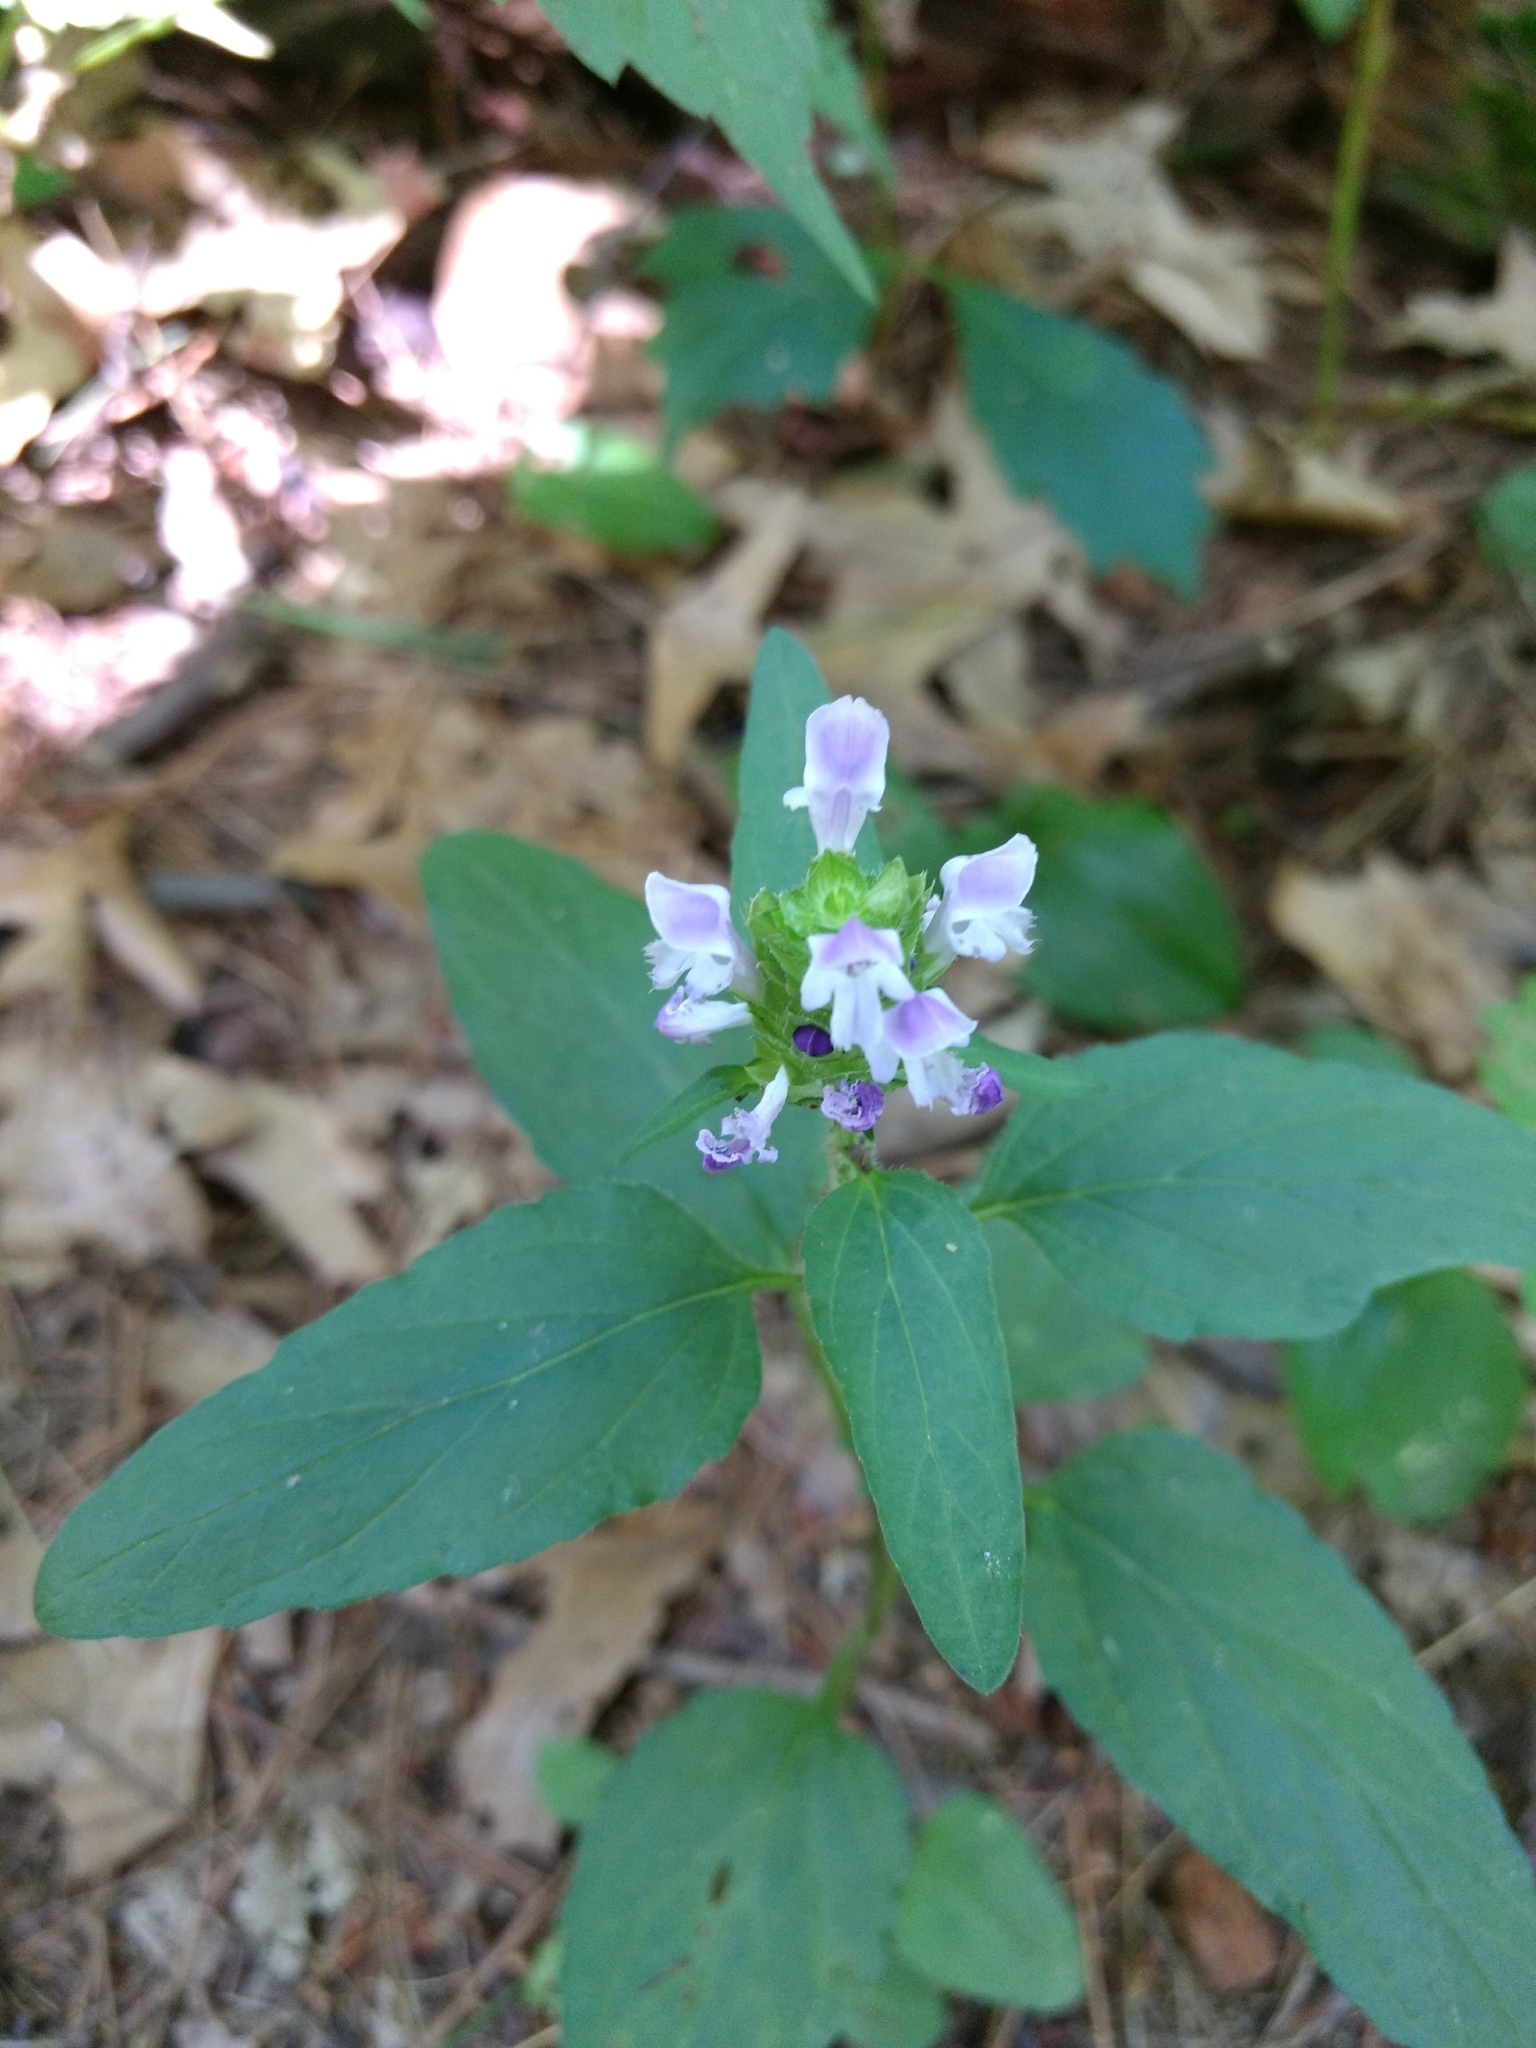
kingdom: Plantae
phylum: Tracheophyta
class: Magnoliopsida
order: Lamiales
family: Lamiaceae
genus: Prunella
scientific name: Prunella vulgaris
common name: Heal-all
